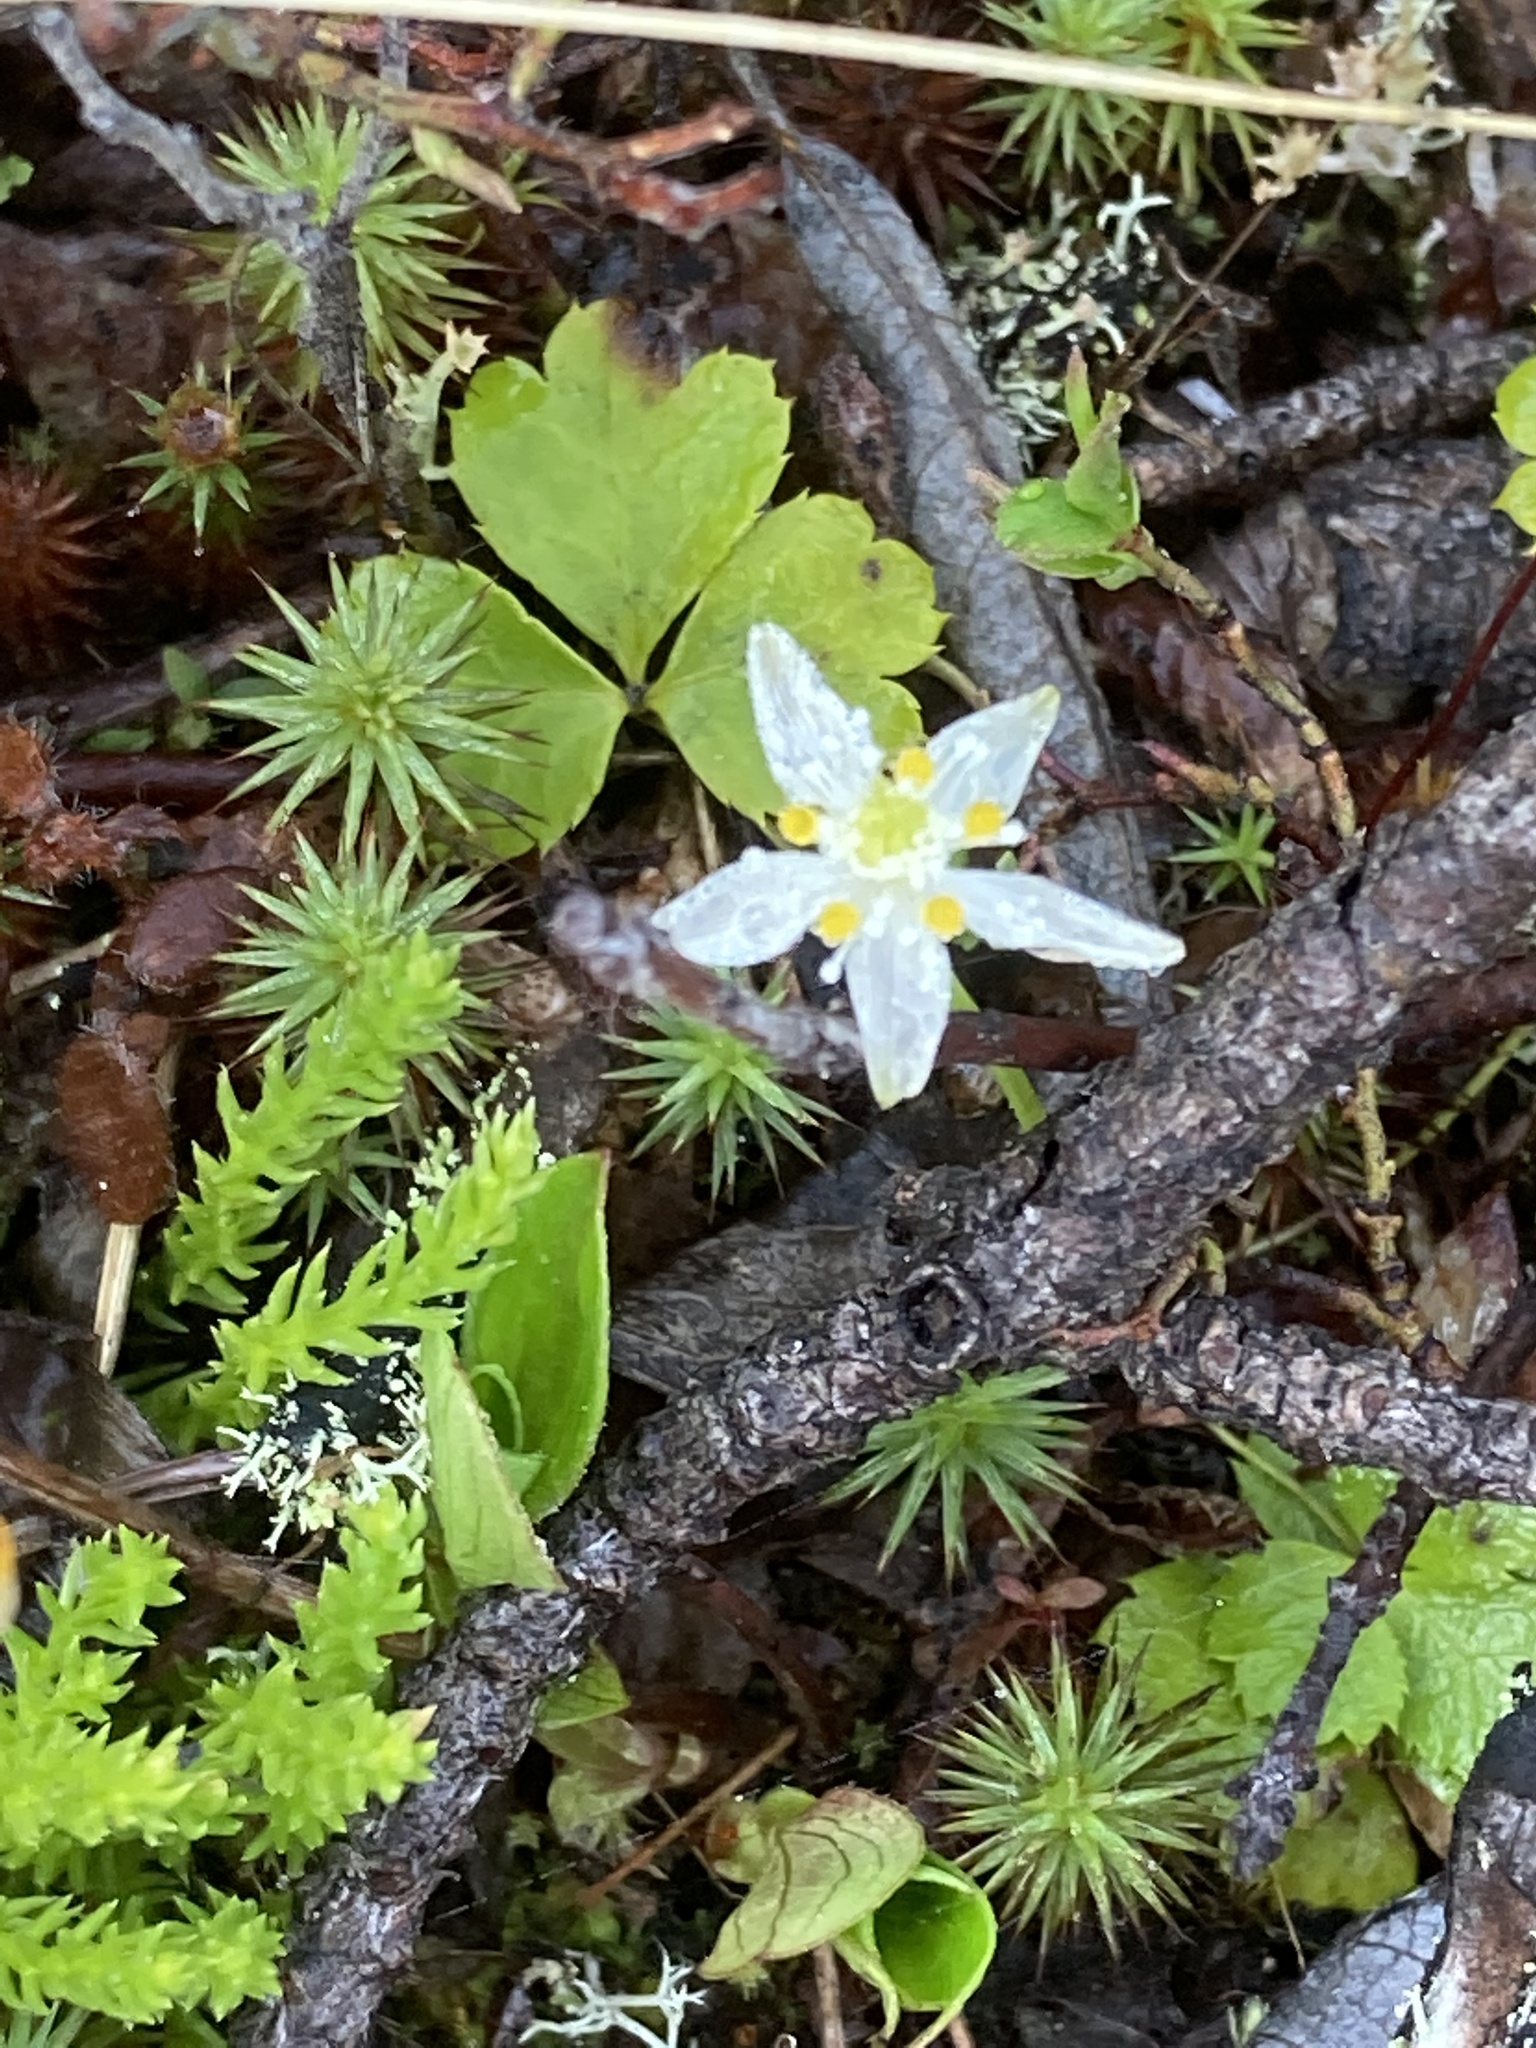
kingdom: Plantae
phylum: Tracheophyta
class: Magnoliopsida
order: Ranunculales
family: Ranunculaceae
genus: Coptis
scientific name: Coptis trifolia
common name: Canker-root
